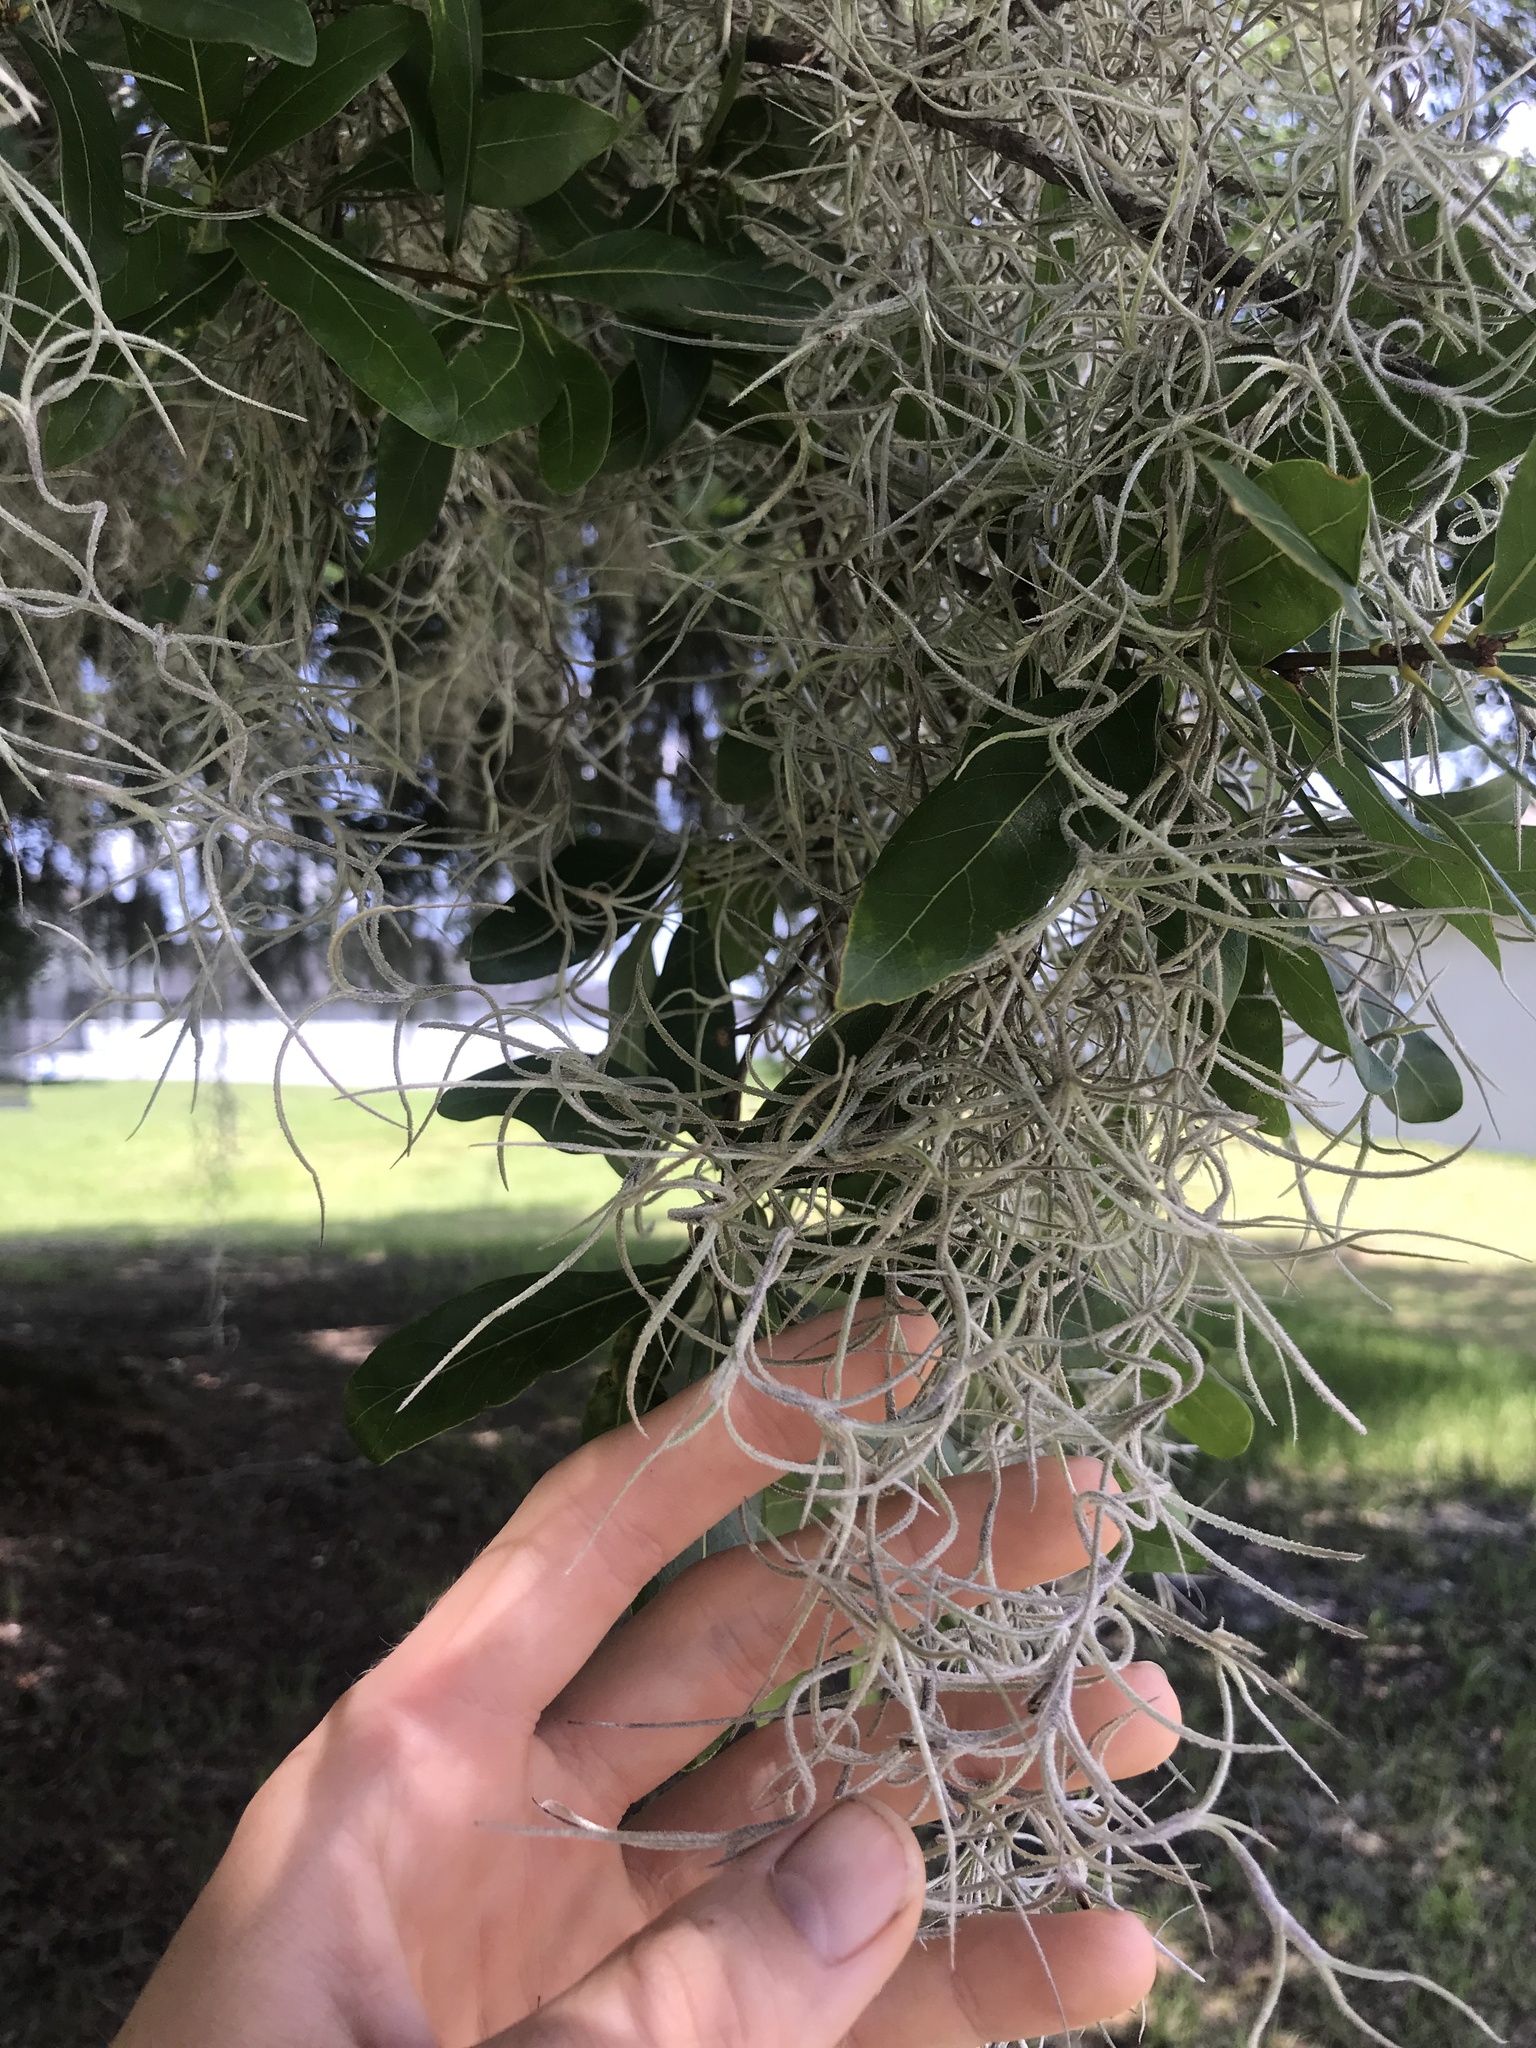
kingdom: Plantae
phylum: Tracheophyta
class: Liliopsida
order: Poales
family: Bromeliaceae
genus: Tillandsia
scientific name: Tillandsia usneoides
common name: Spanish moss
